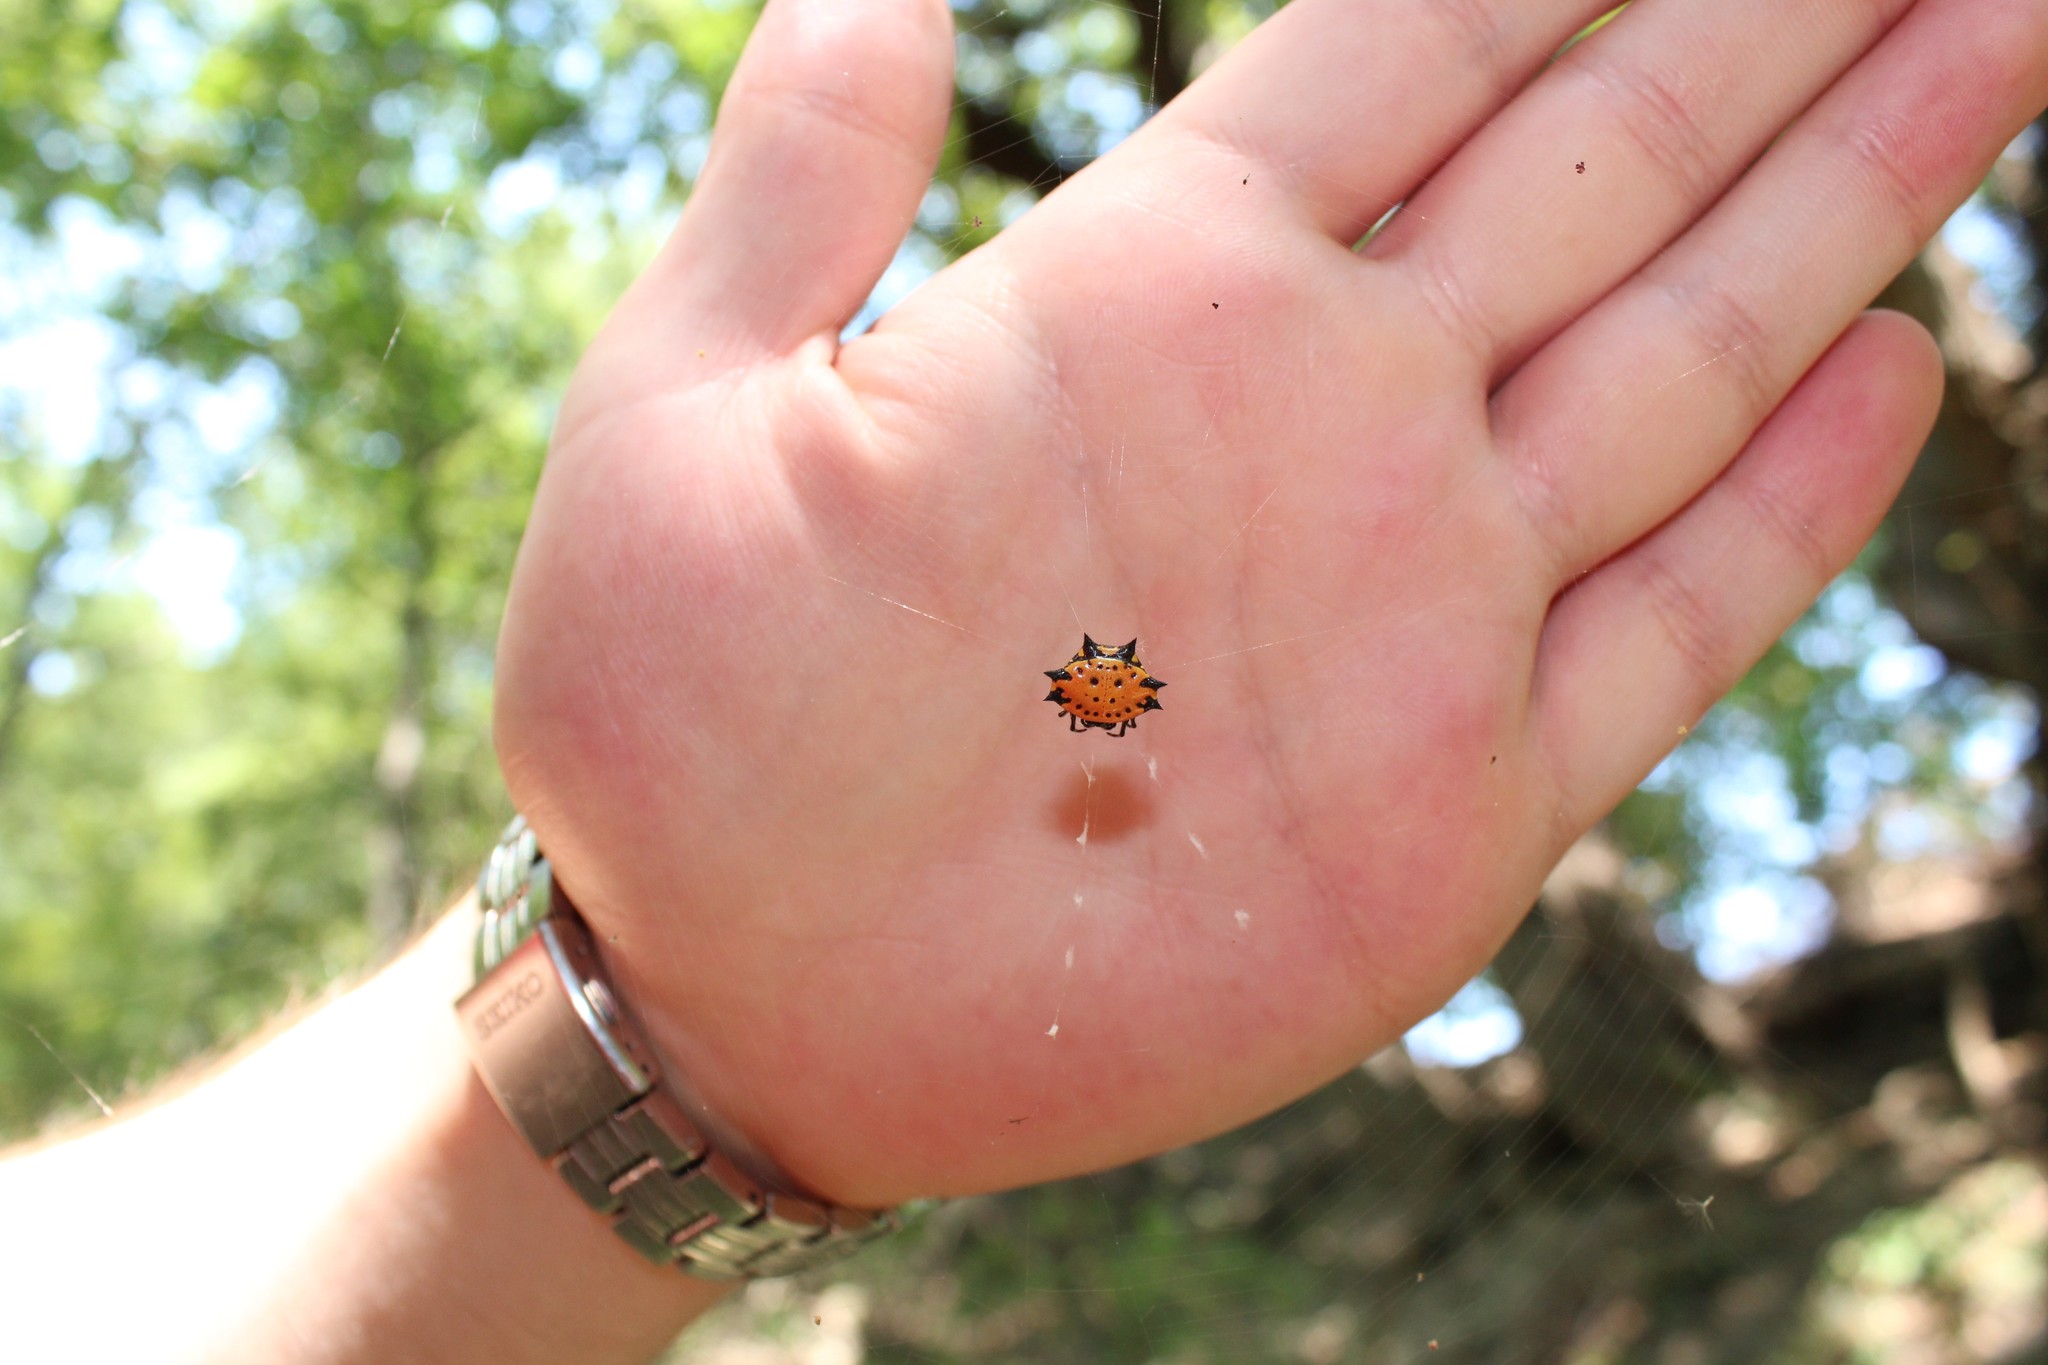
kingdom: Animalia
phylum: Arthropoda
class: Arachnida
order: Araneae
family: Araneidae
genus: Gasteracantha
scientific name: Gasteracantha cancriformis
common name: Orb weavers
